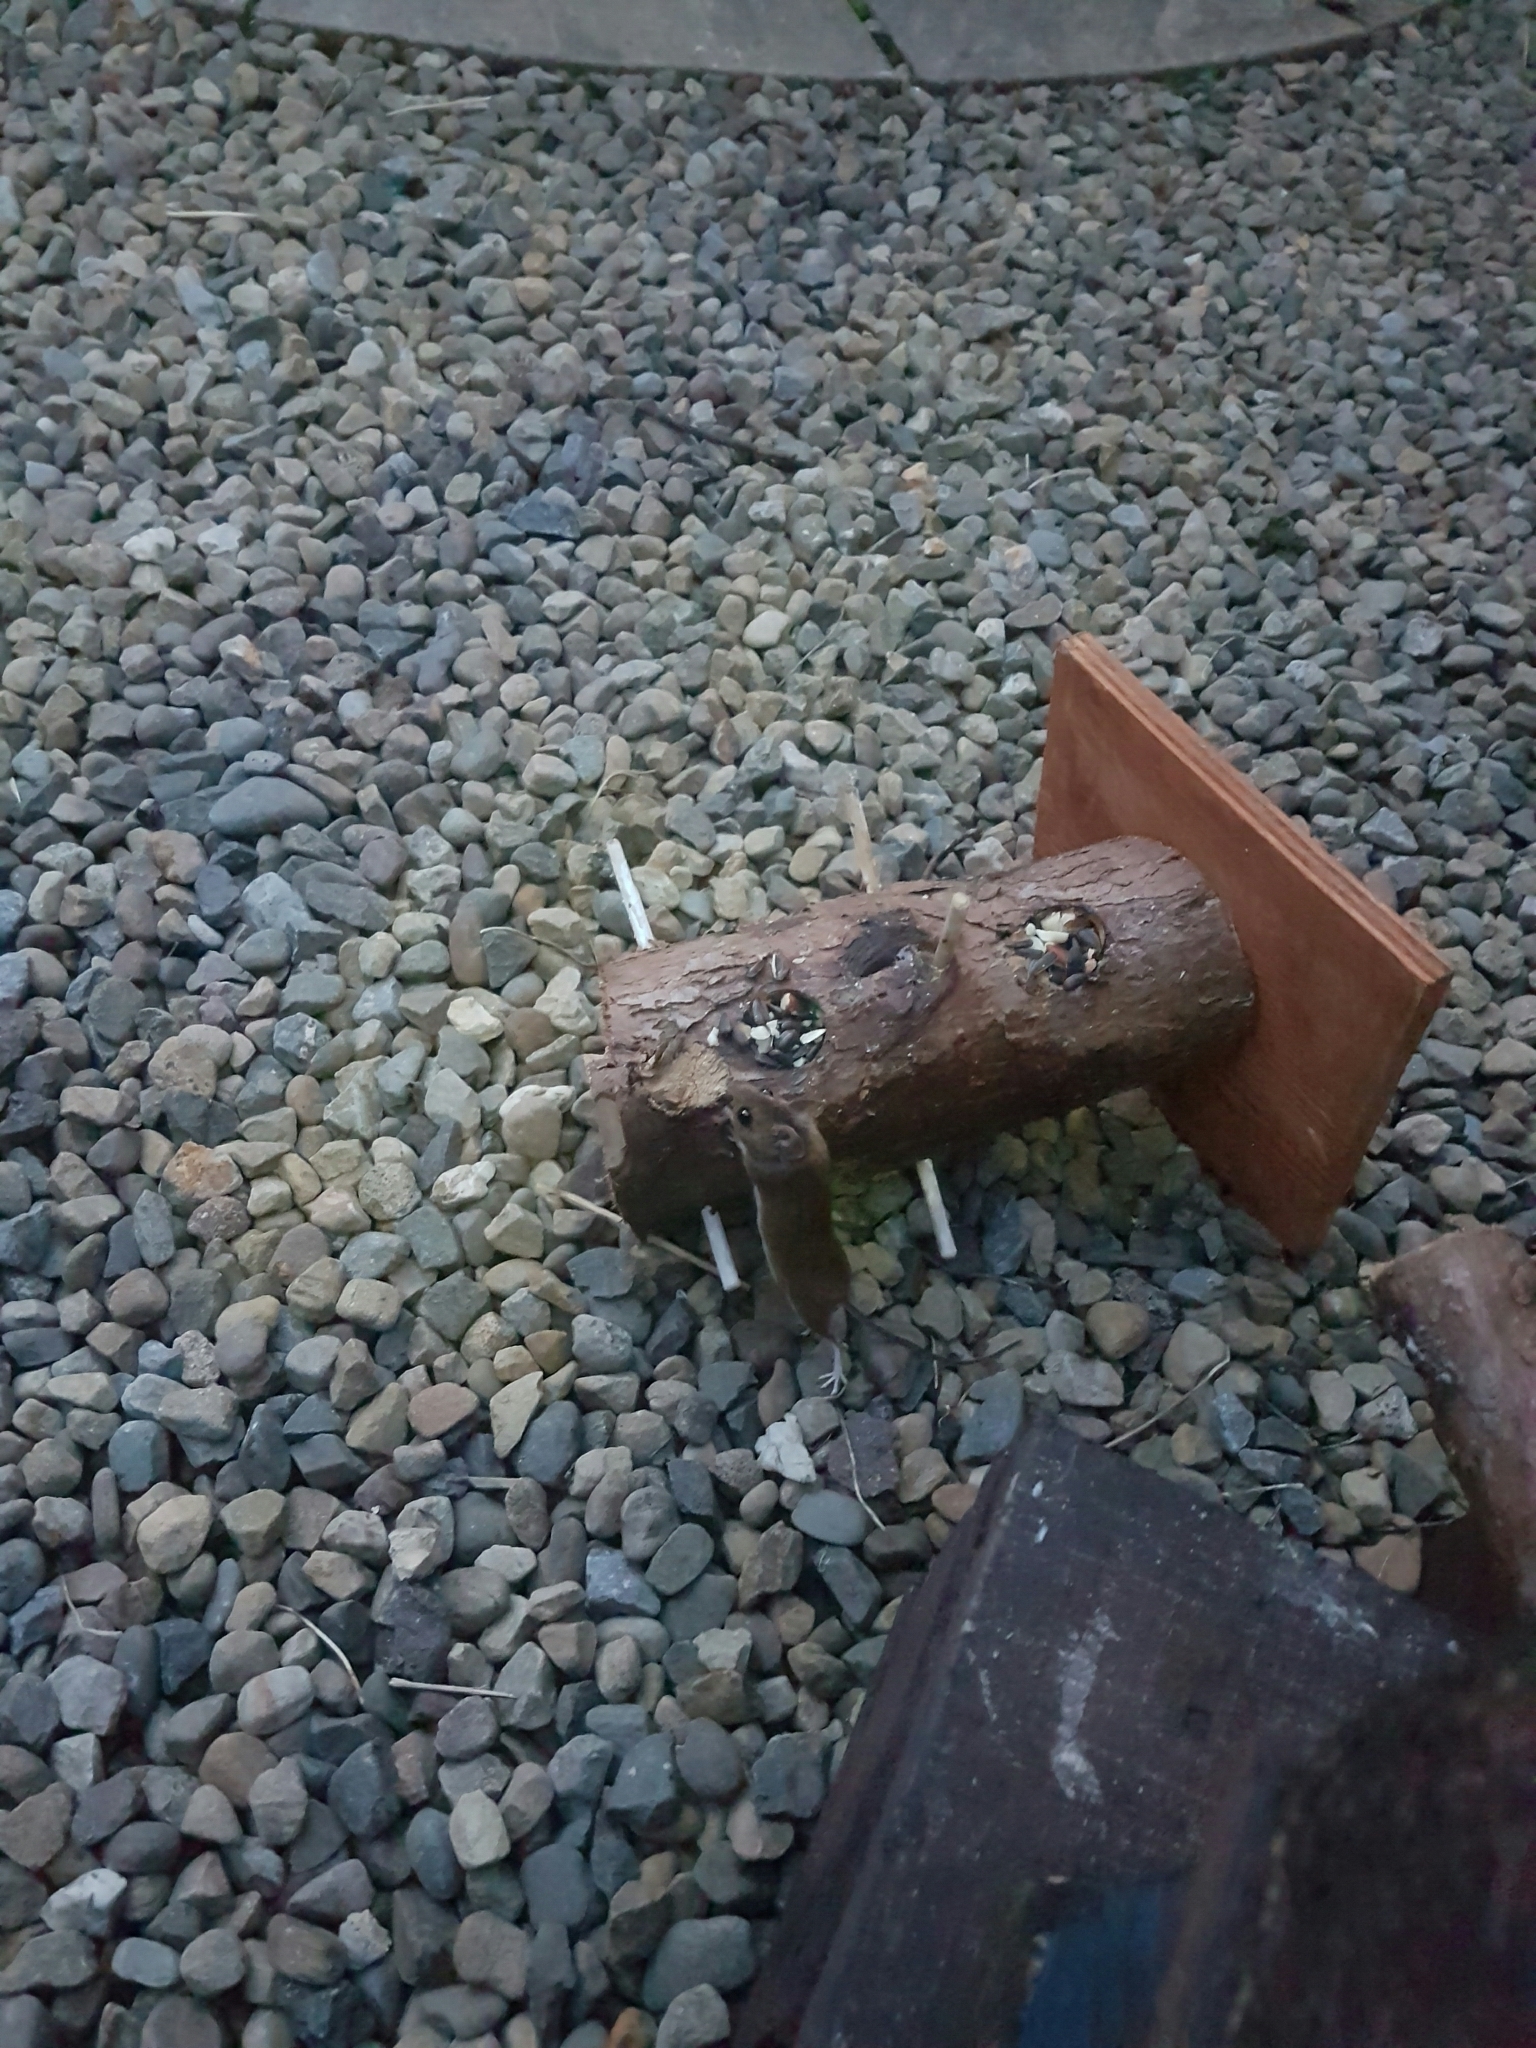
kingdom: Animalia
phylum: Chordata
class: Mammalia
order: Rodentia
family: Muridae
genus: Apodemus
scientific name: Apodemus sylvaticus
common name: Wood mouse
